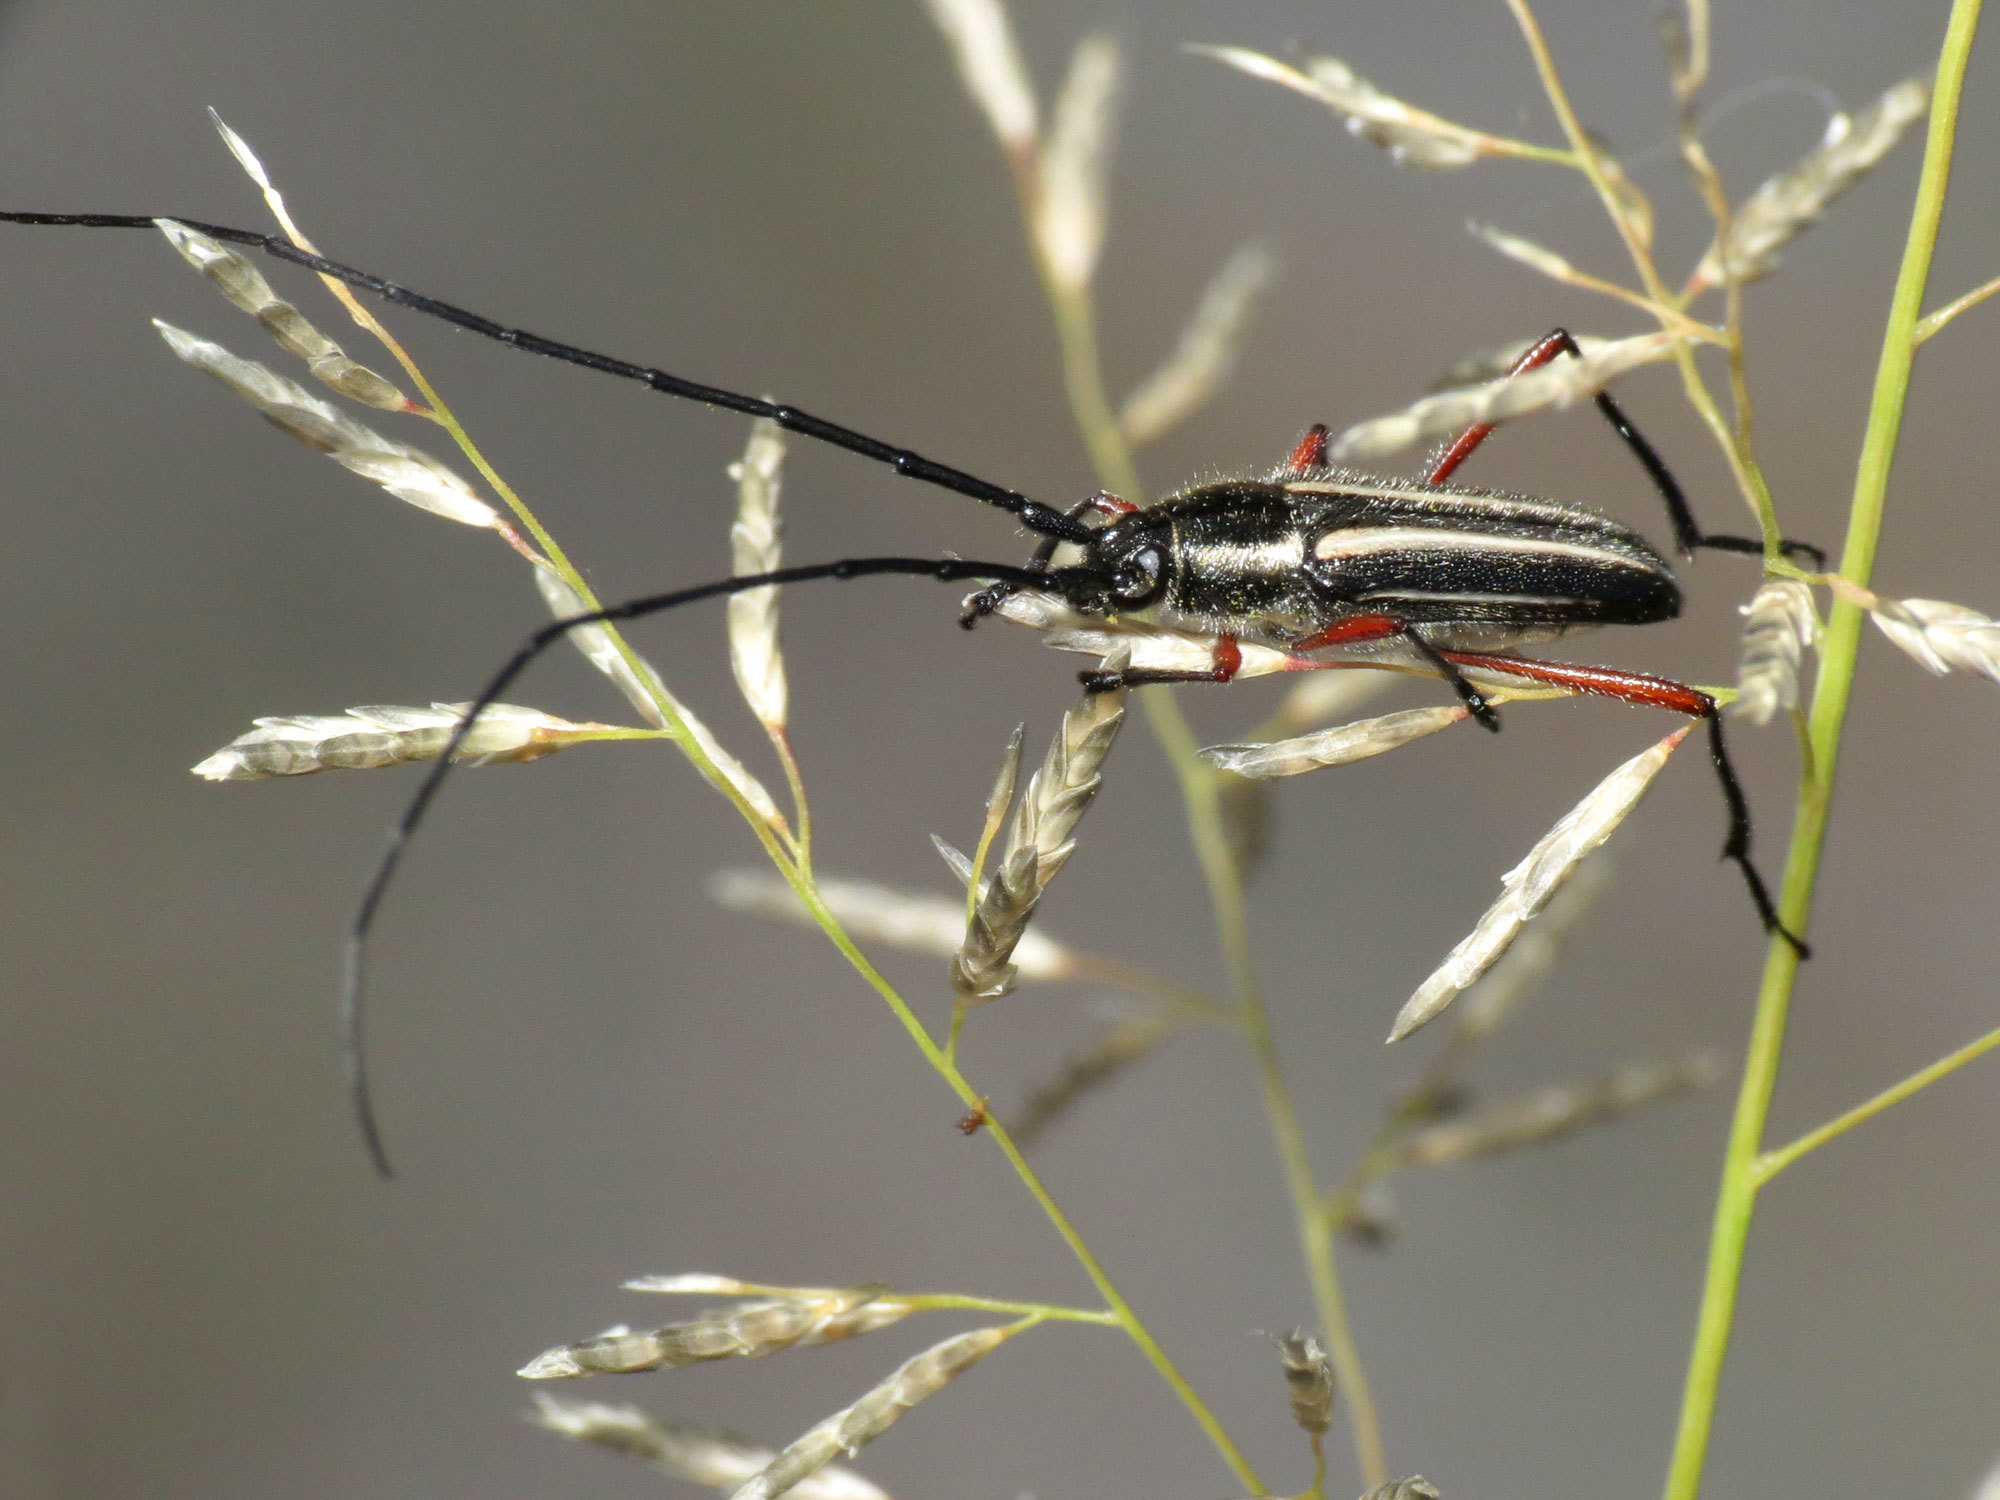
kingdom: Animalia
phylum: Arthropoda
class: Insecta
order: Coleoptera
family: Cerambycidae
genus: Sphaenothecus
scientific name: Sphaenothecus bilineatus
